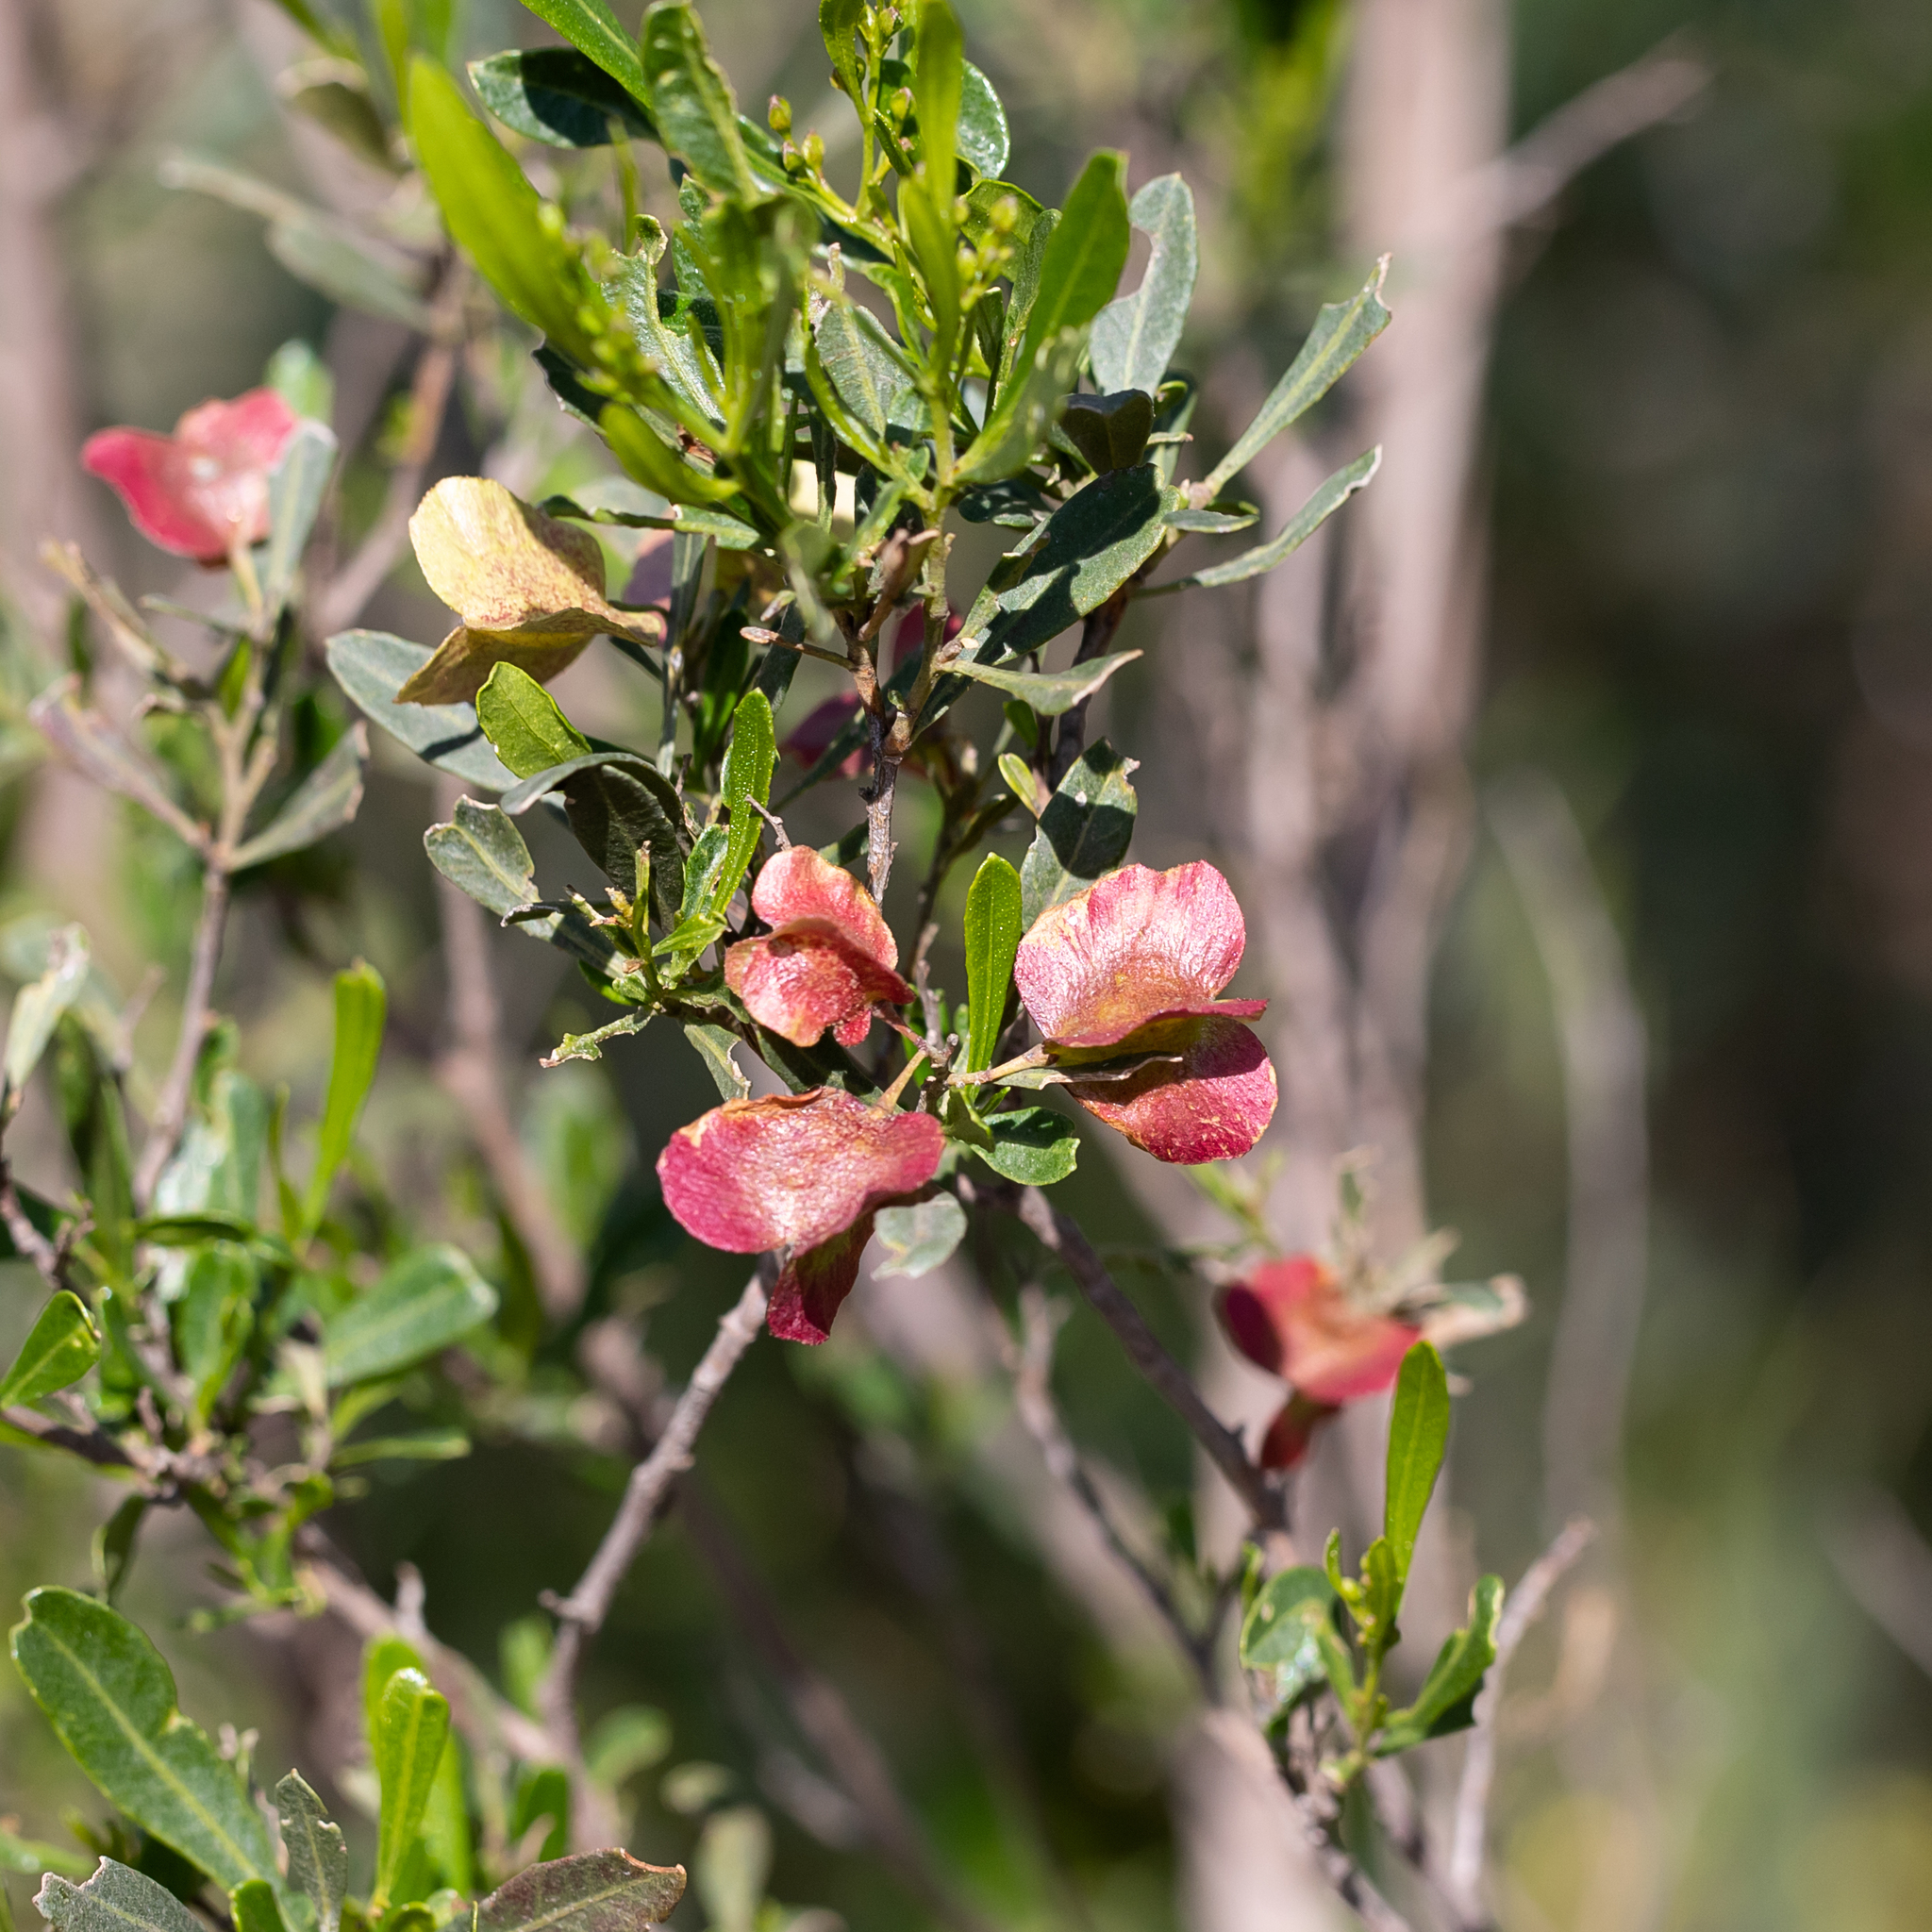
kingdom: Plantae
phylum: Tracheophyta
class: Magnoliopsida
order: Sapindales
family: Sapindaceae
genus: Dodonaea
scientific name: Dodonaea viscosa
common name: Hopbush
